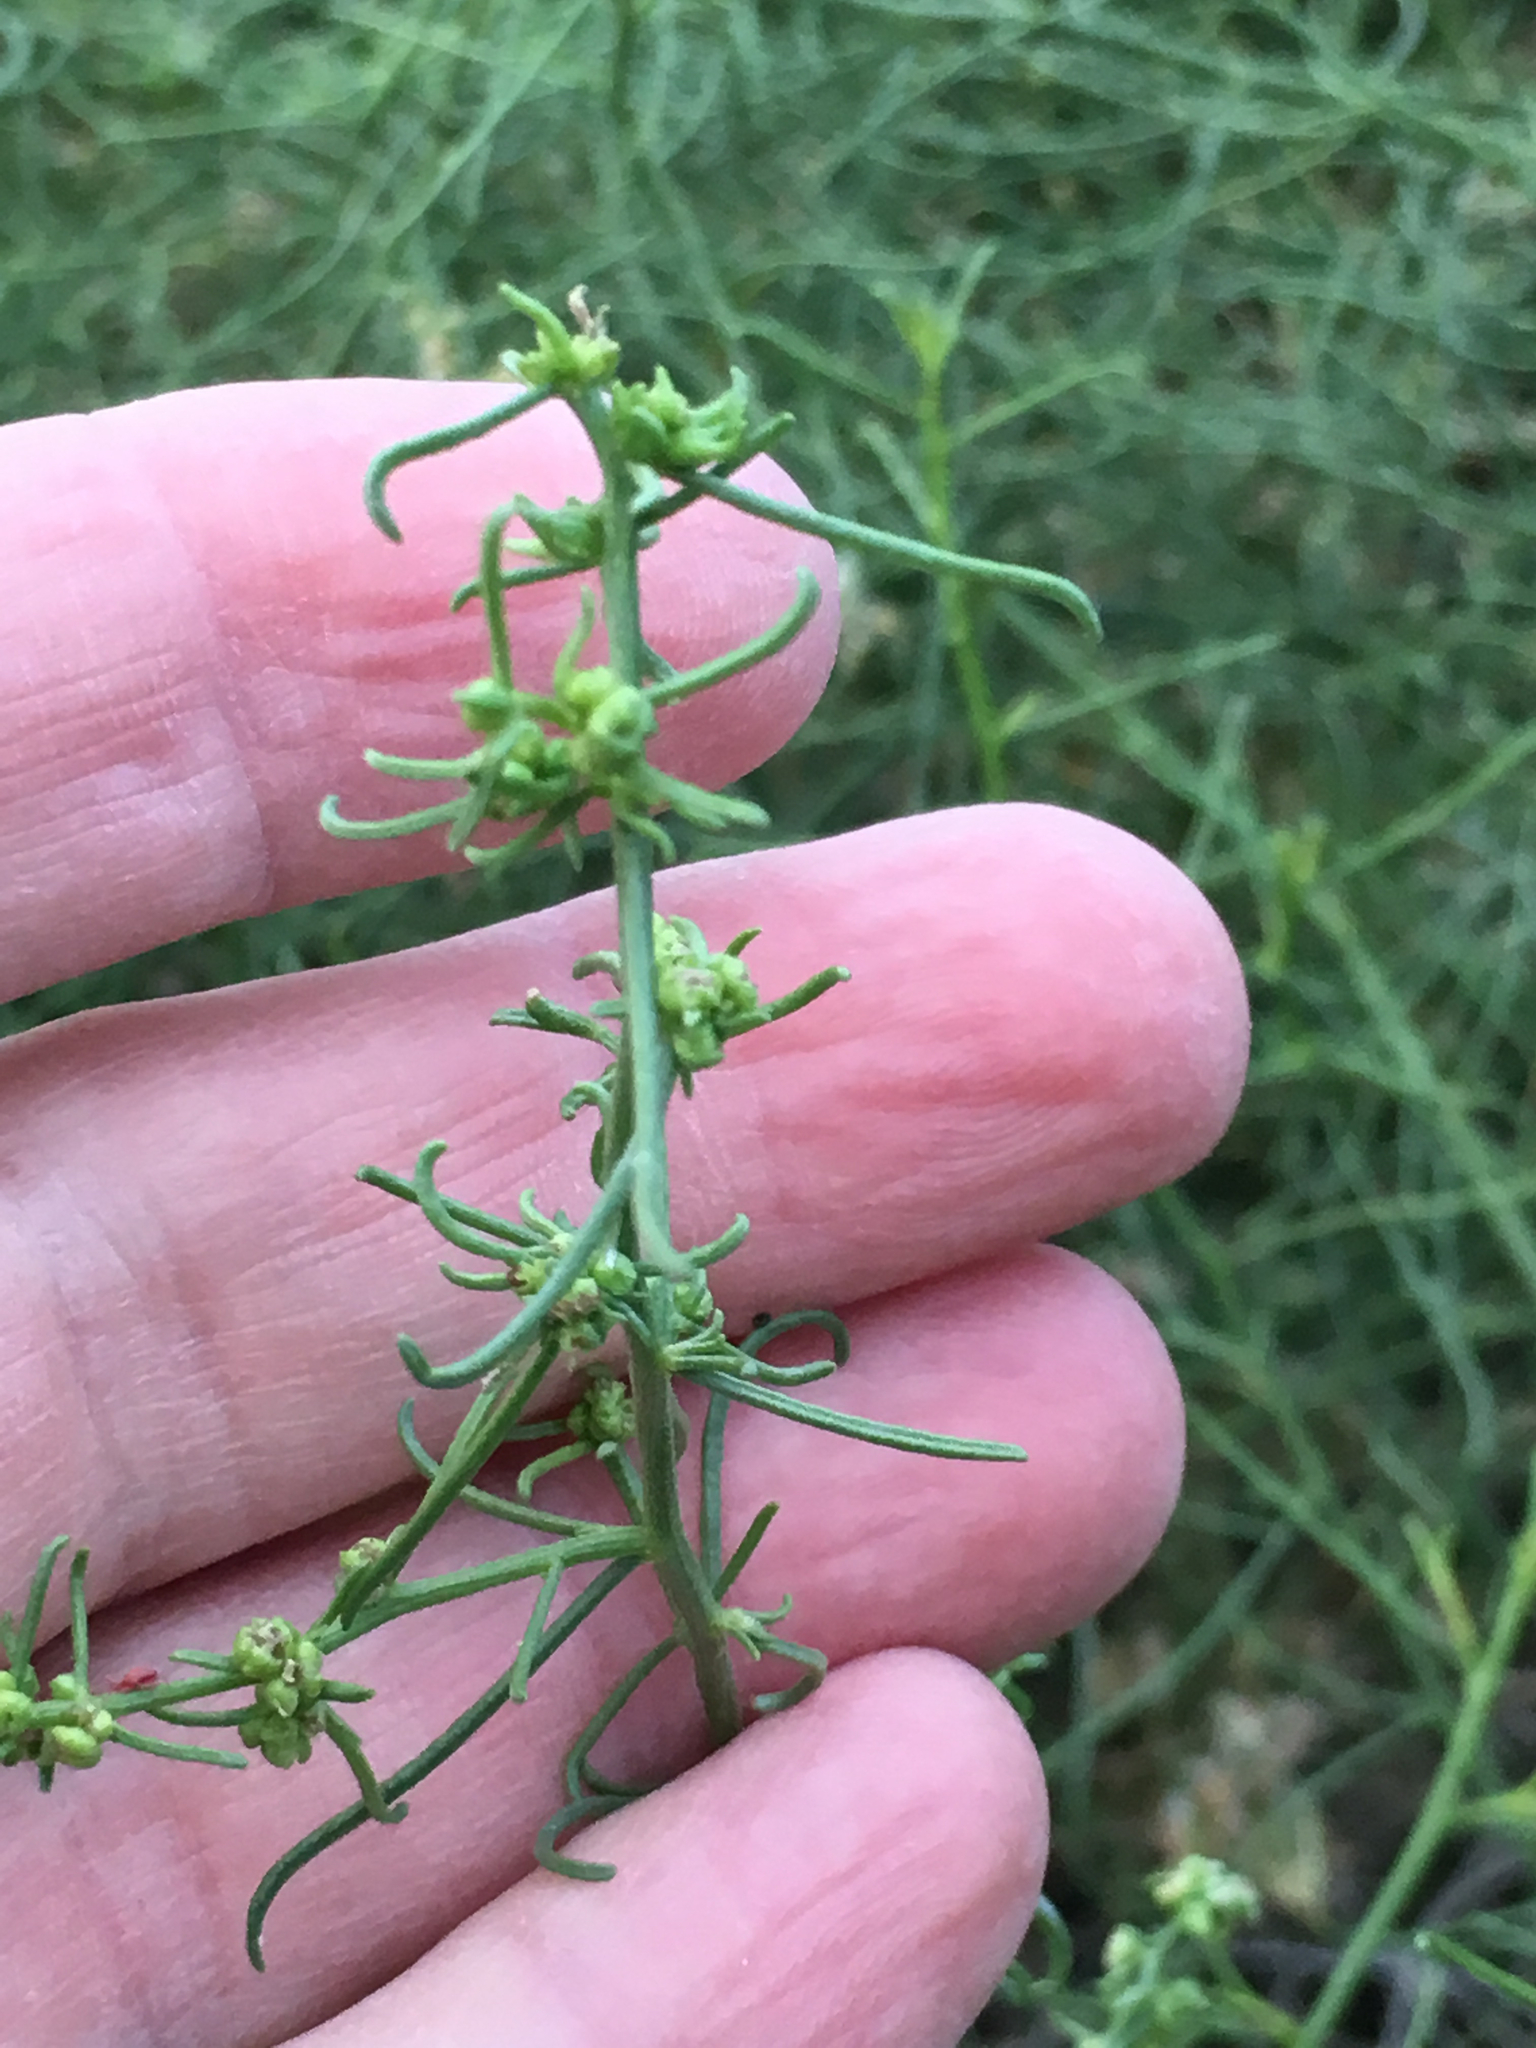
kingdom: Plantae
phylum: Tracheophyta
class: Magnoliopsida
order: Asterales
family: Asteraceae
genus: Ambrosia
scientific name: Ambrosia salsola
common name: Burrobrush
